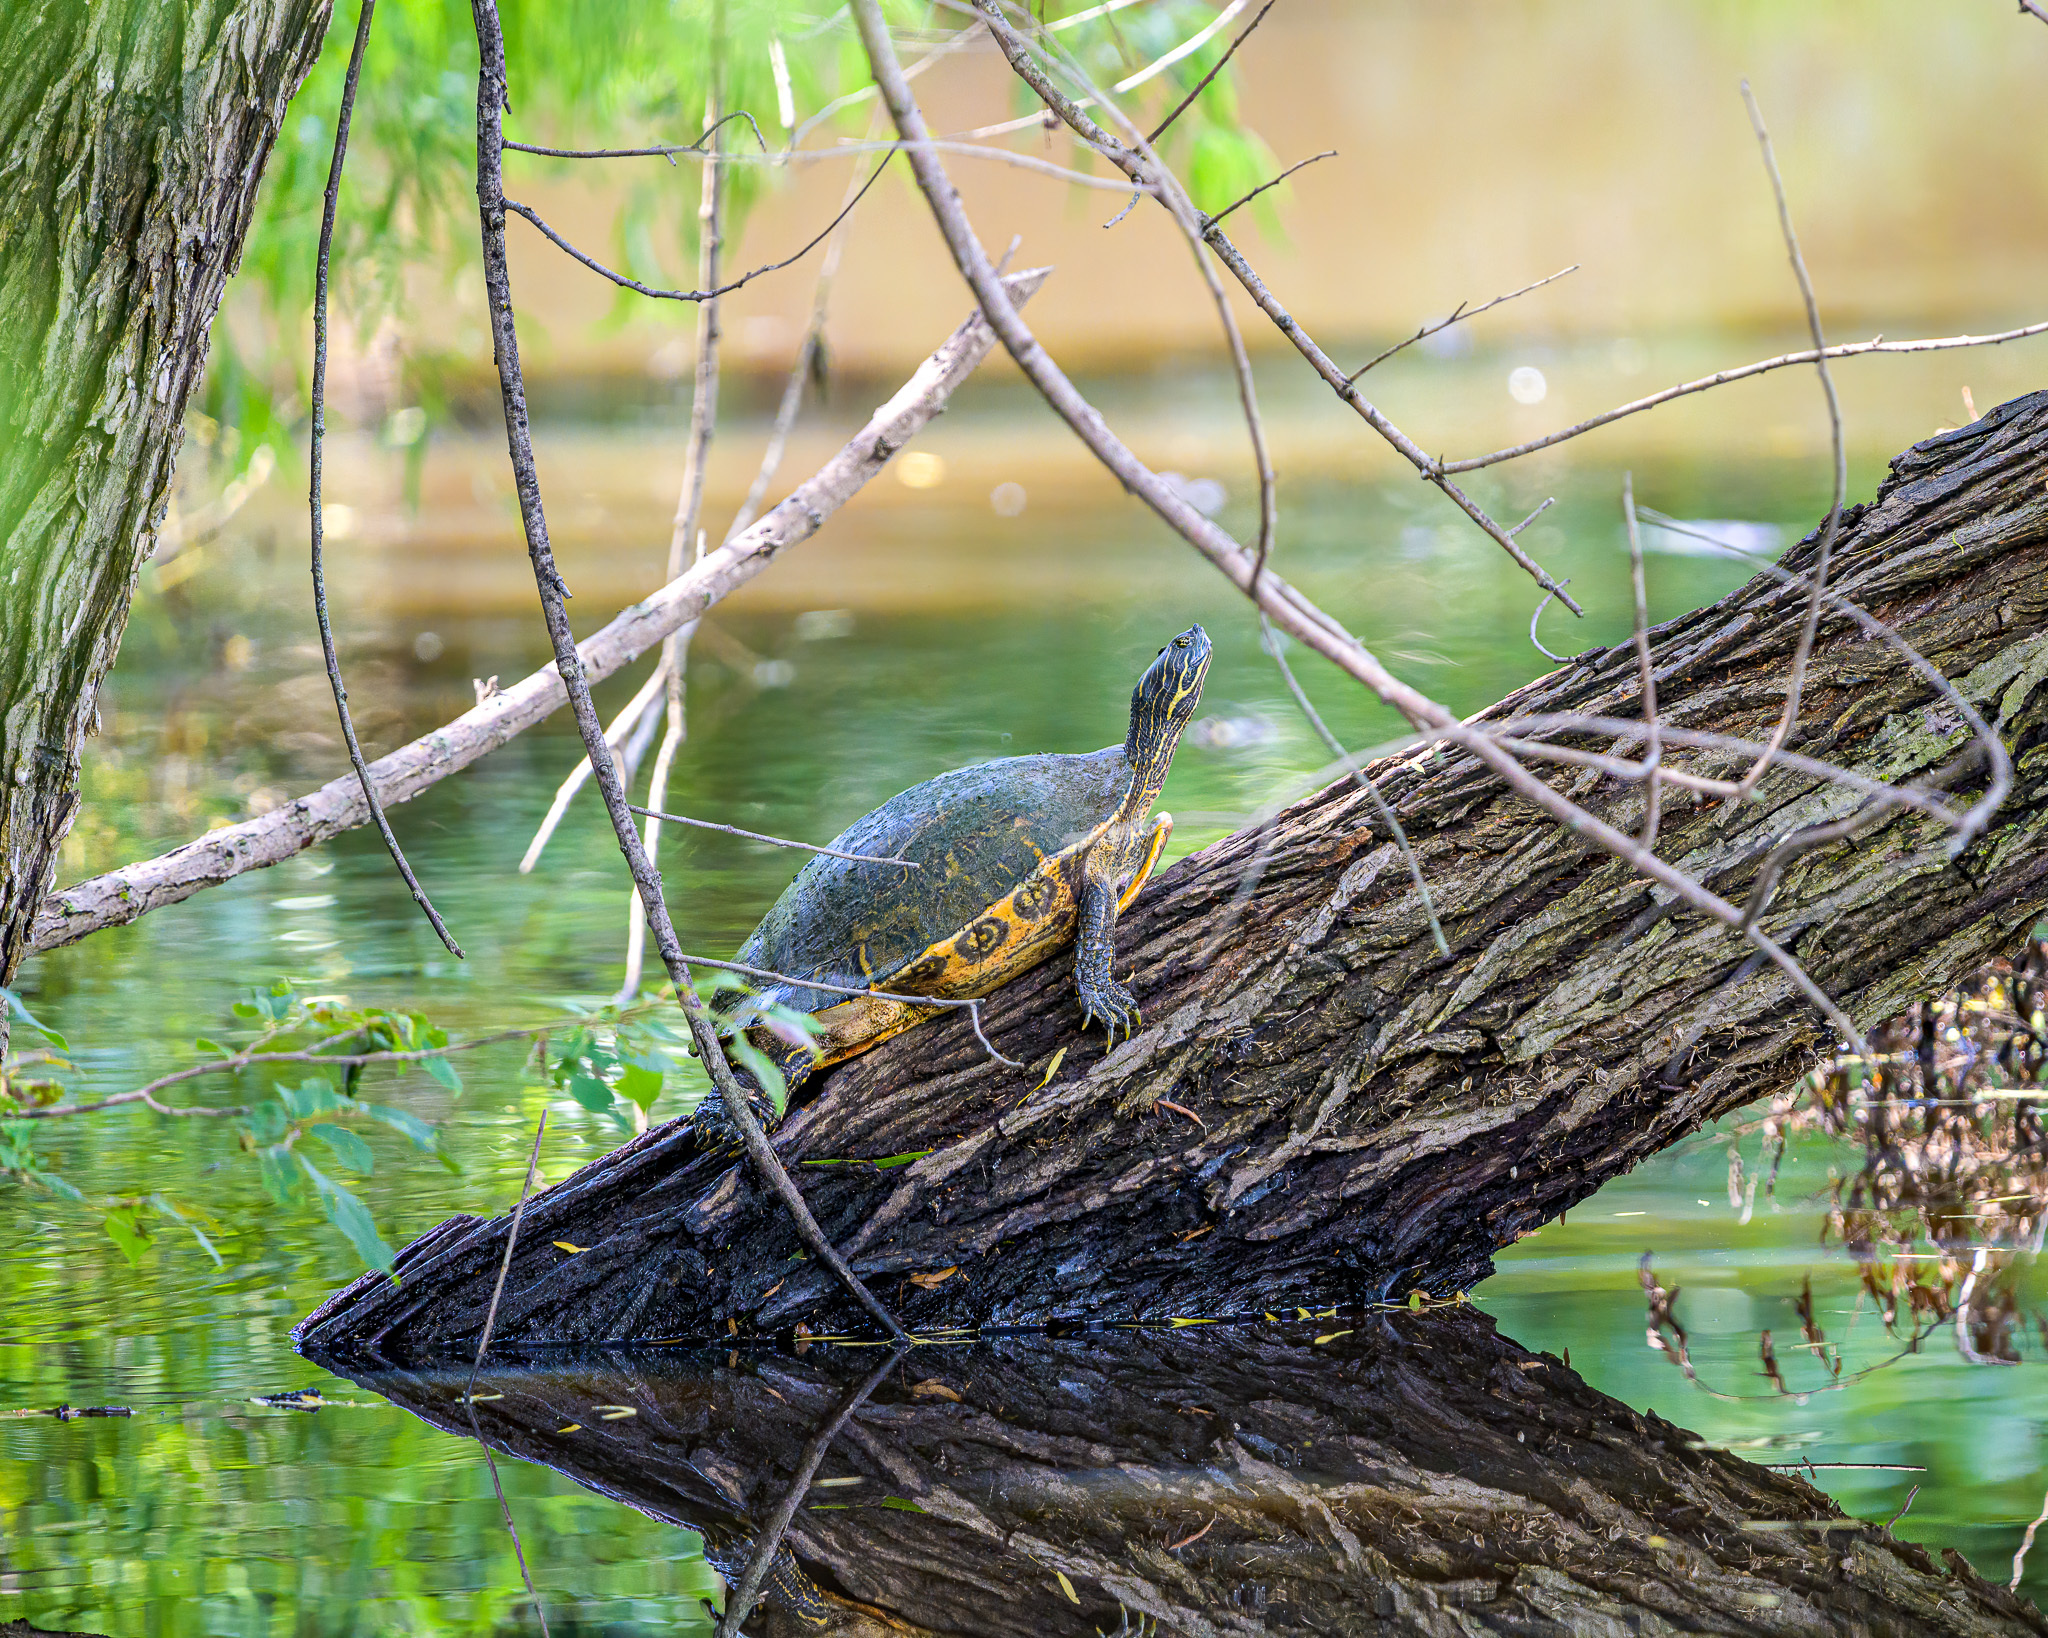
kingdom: Animalia
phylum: Chordata
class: Testudines
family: Emydidae
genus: Pseudemys
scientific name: Pseudemys concinna
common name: Eastern river cooter
